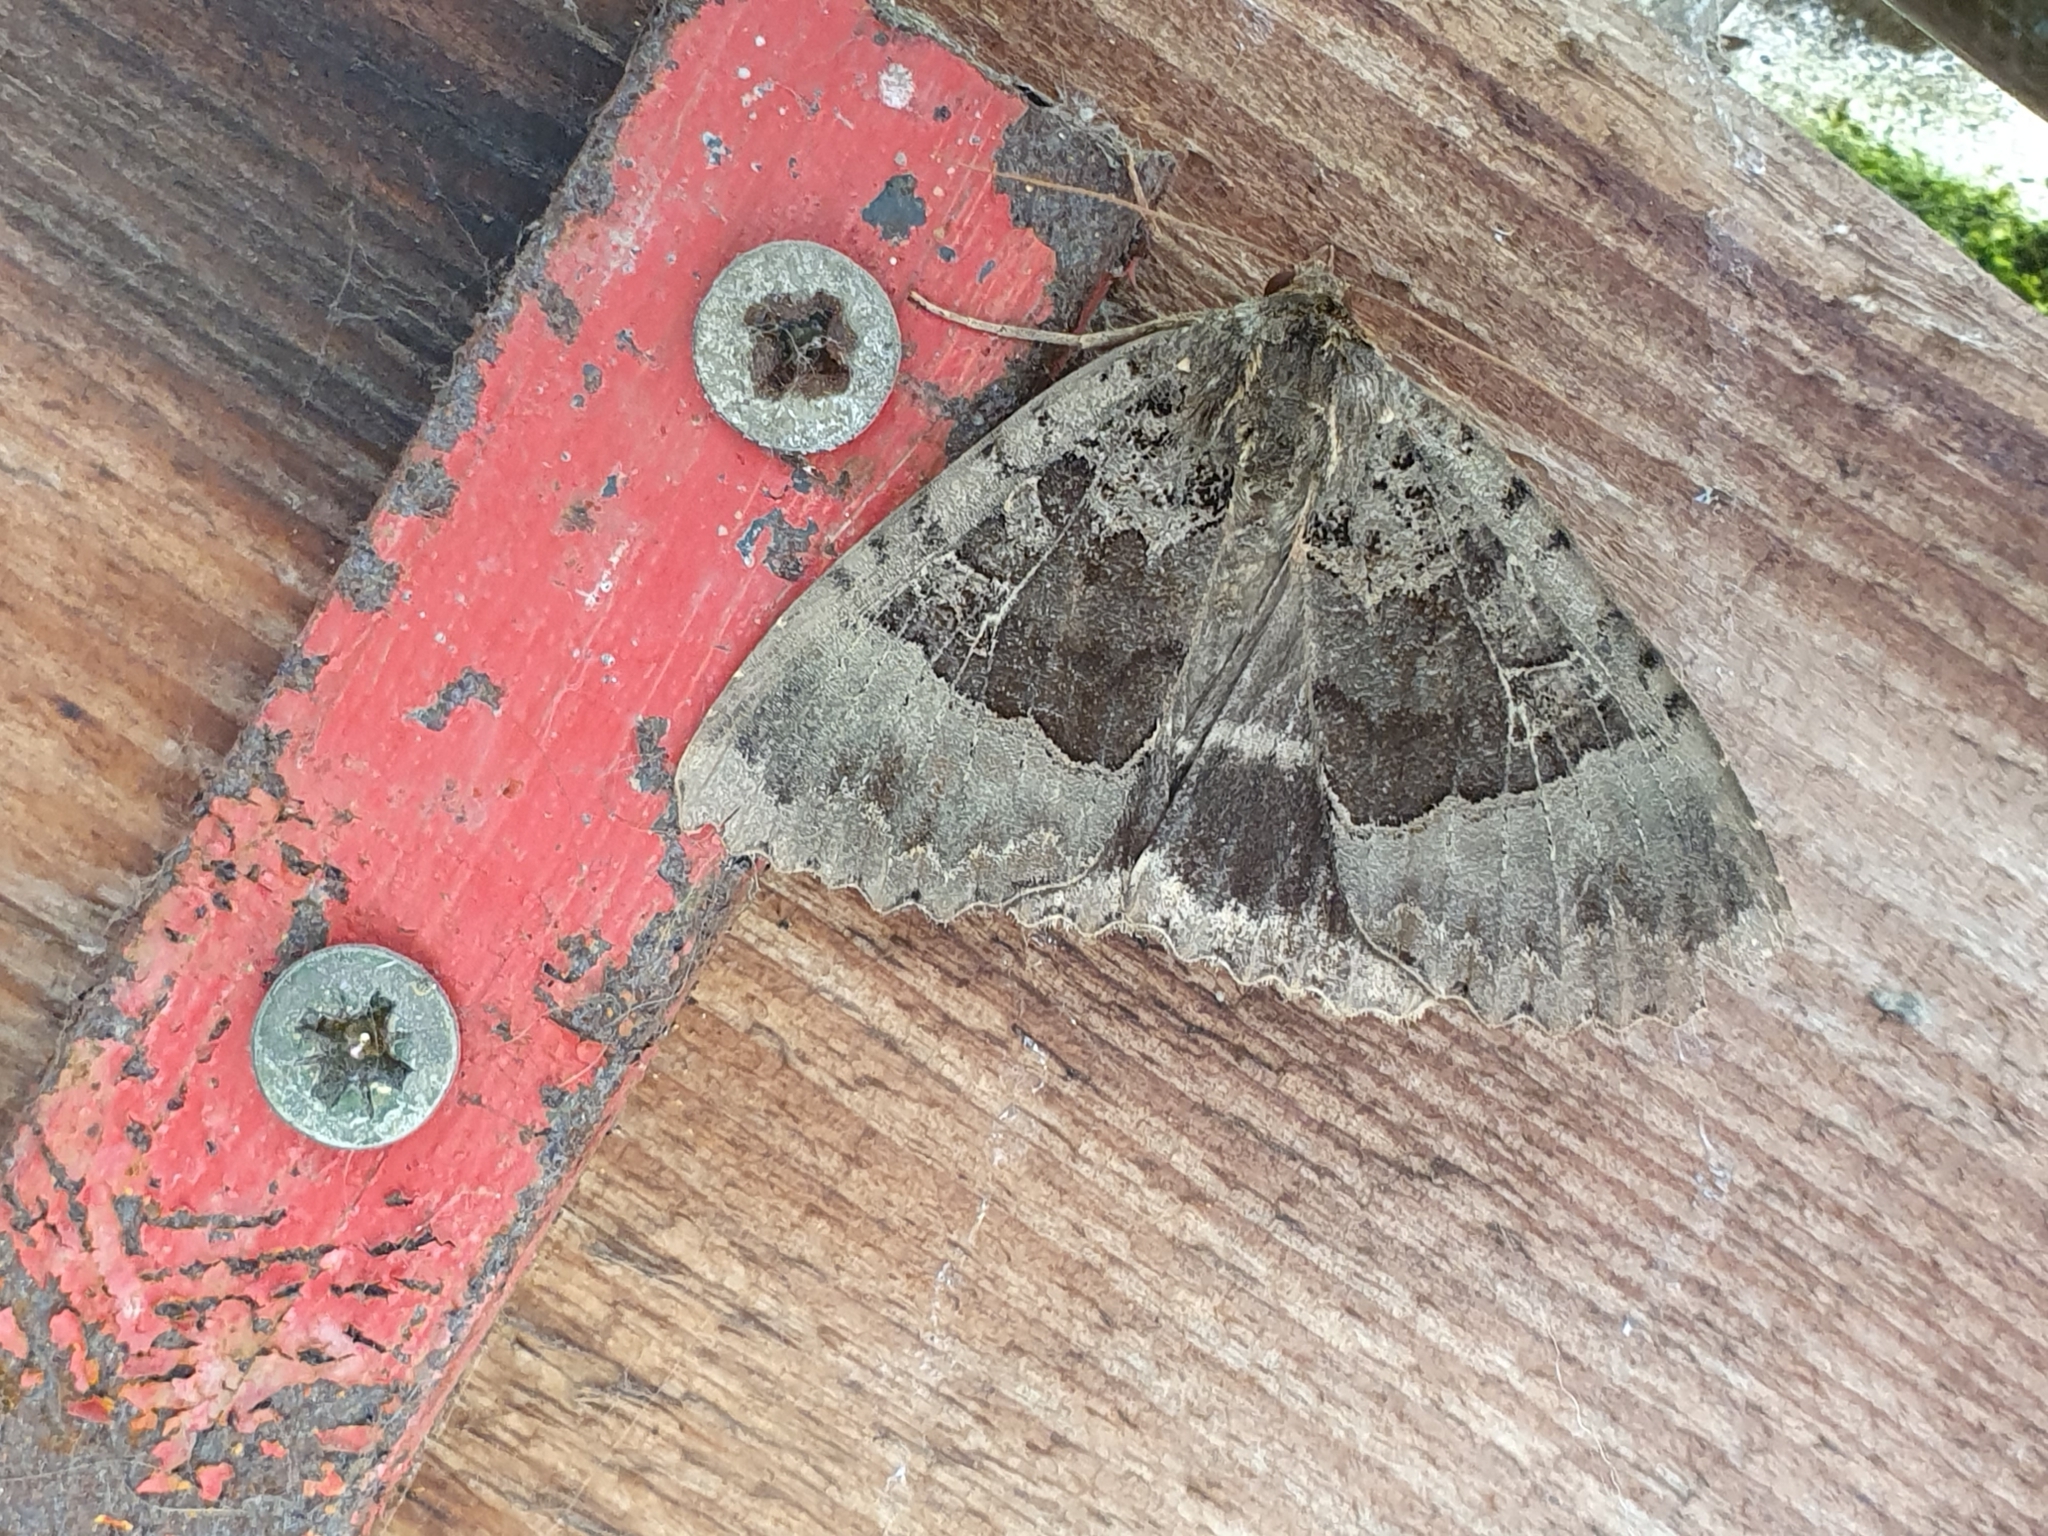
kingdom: Animalia
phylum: Arthropoda
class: Insecta
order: Lepidoptera
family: Noctuidae
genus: Mormo
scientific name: Mormo maura
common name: Old lady
